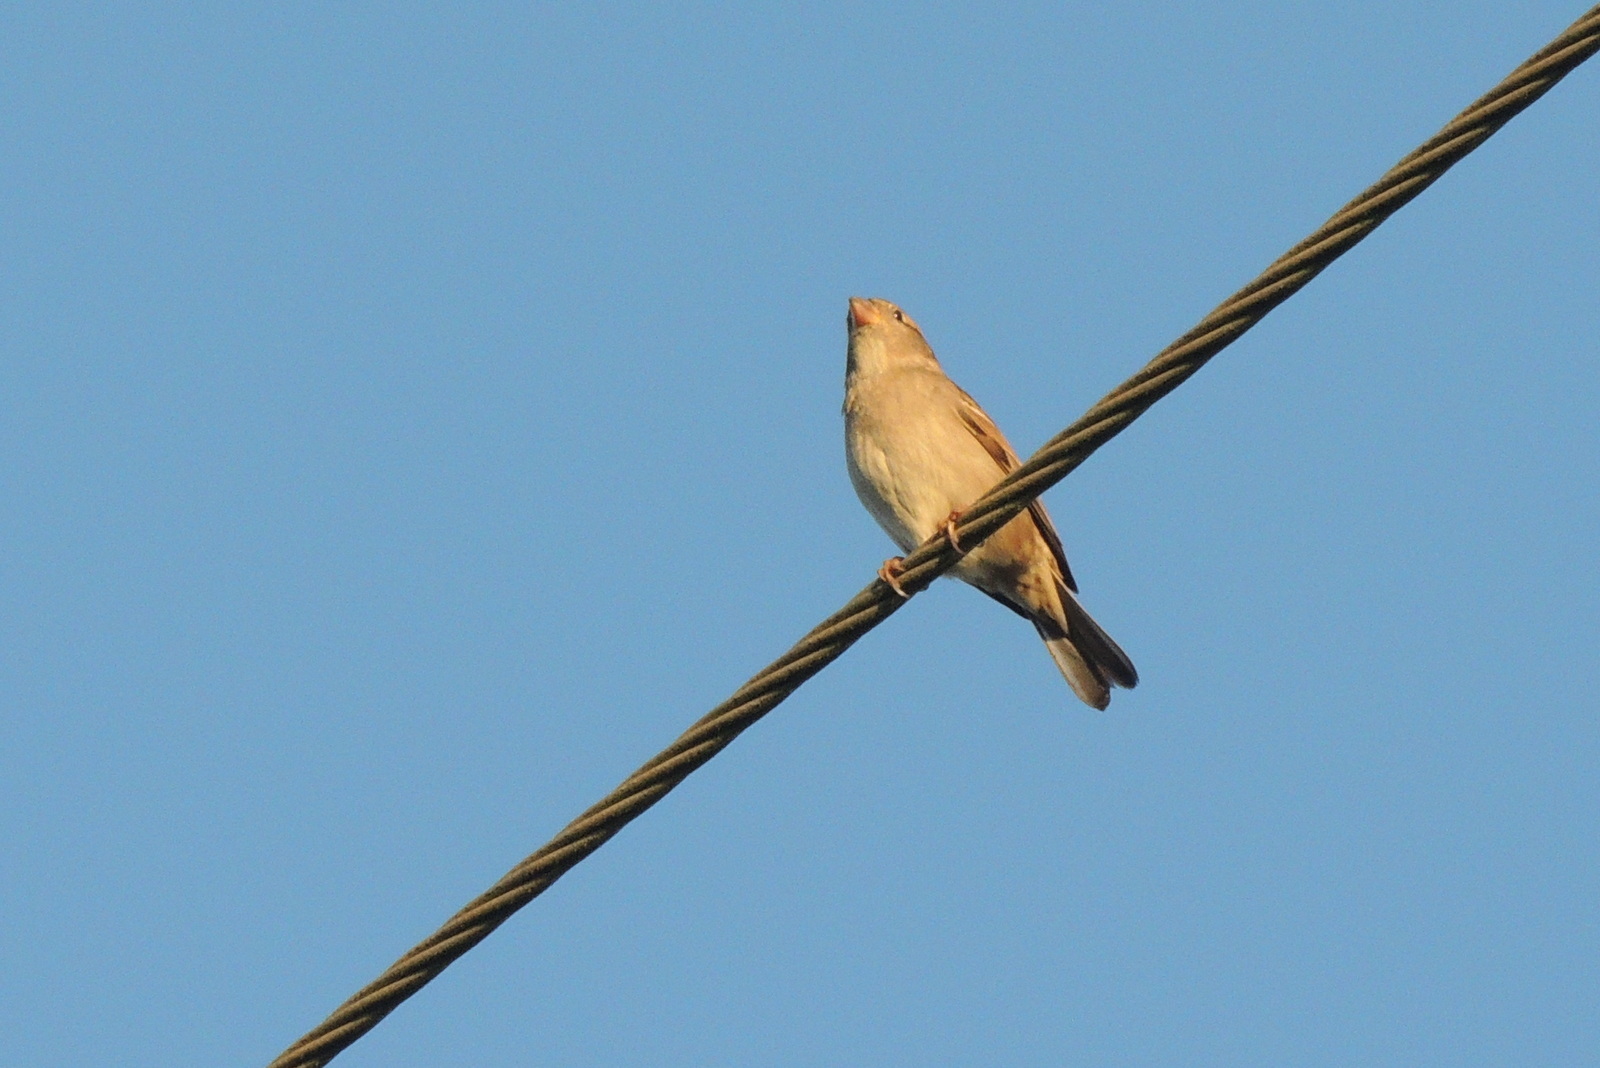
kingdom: Animalia
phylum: Chordata
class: Aves
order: Passeriformes
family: Passeridae
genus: Passer
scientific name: Passer domesticus
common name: House sparrow
